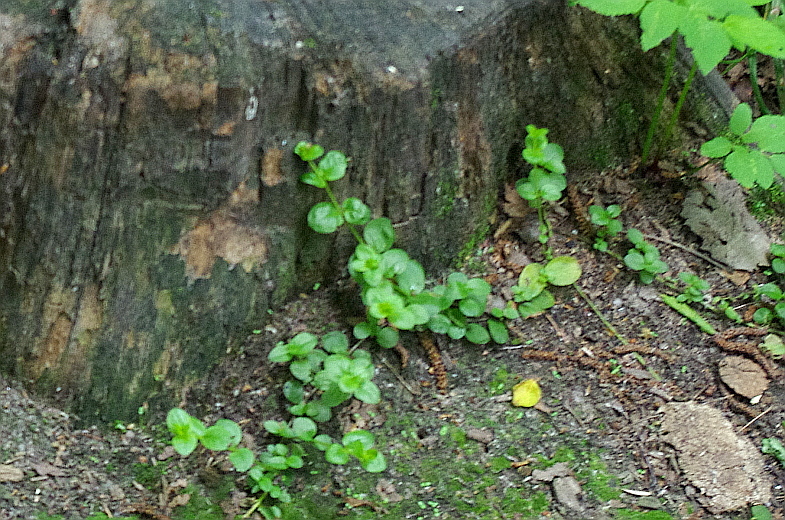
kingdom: Plantae
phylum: Tracheophyta
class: Magnoliopsida
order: Ericales
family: Primulaceae
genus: Lysimachia
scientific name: Lysimachia nummularia
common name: Moneywort
